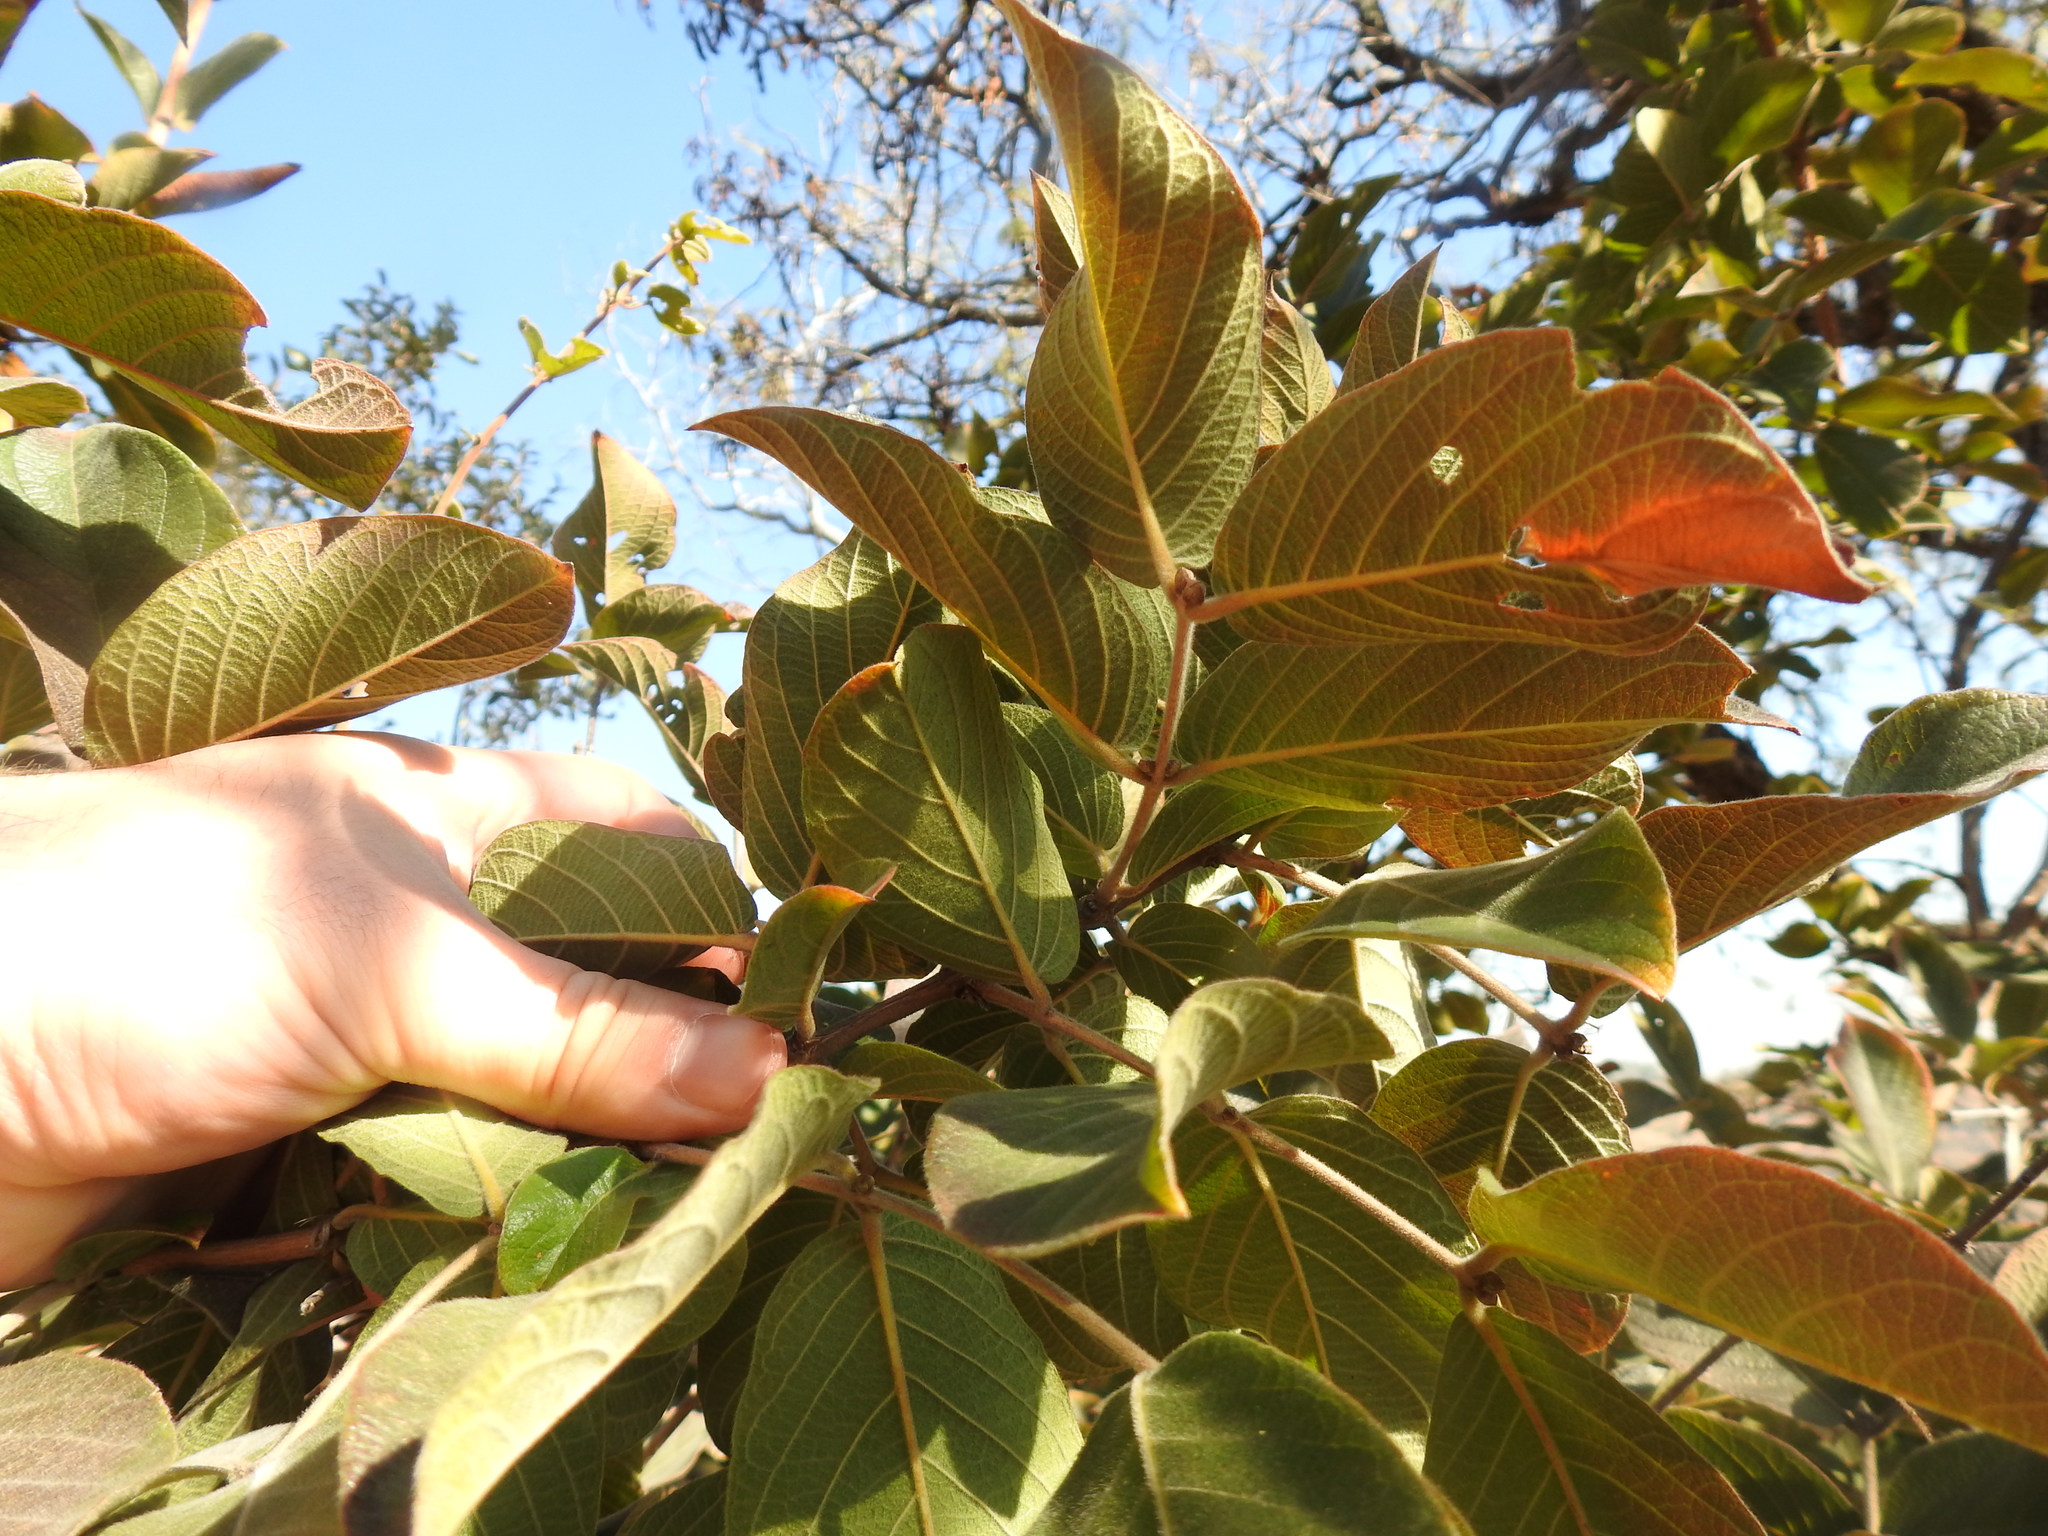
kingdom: Plantae
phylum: Tracheophyta
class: Magnoliopsida
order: Myrtales
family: Combretaceae
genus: Combretum
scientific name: Combretum molle
